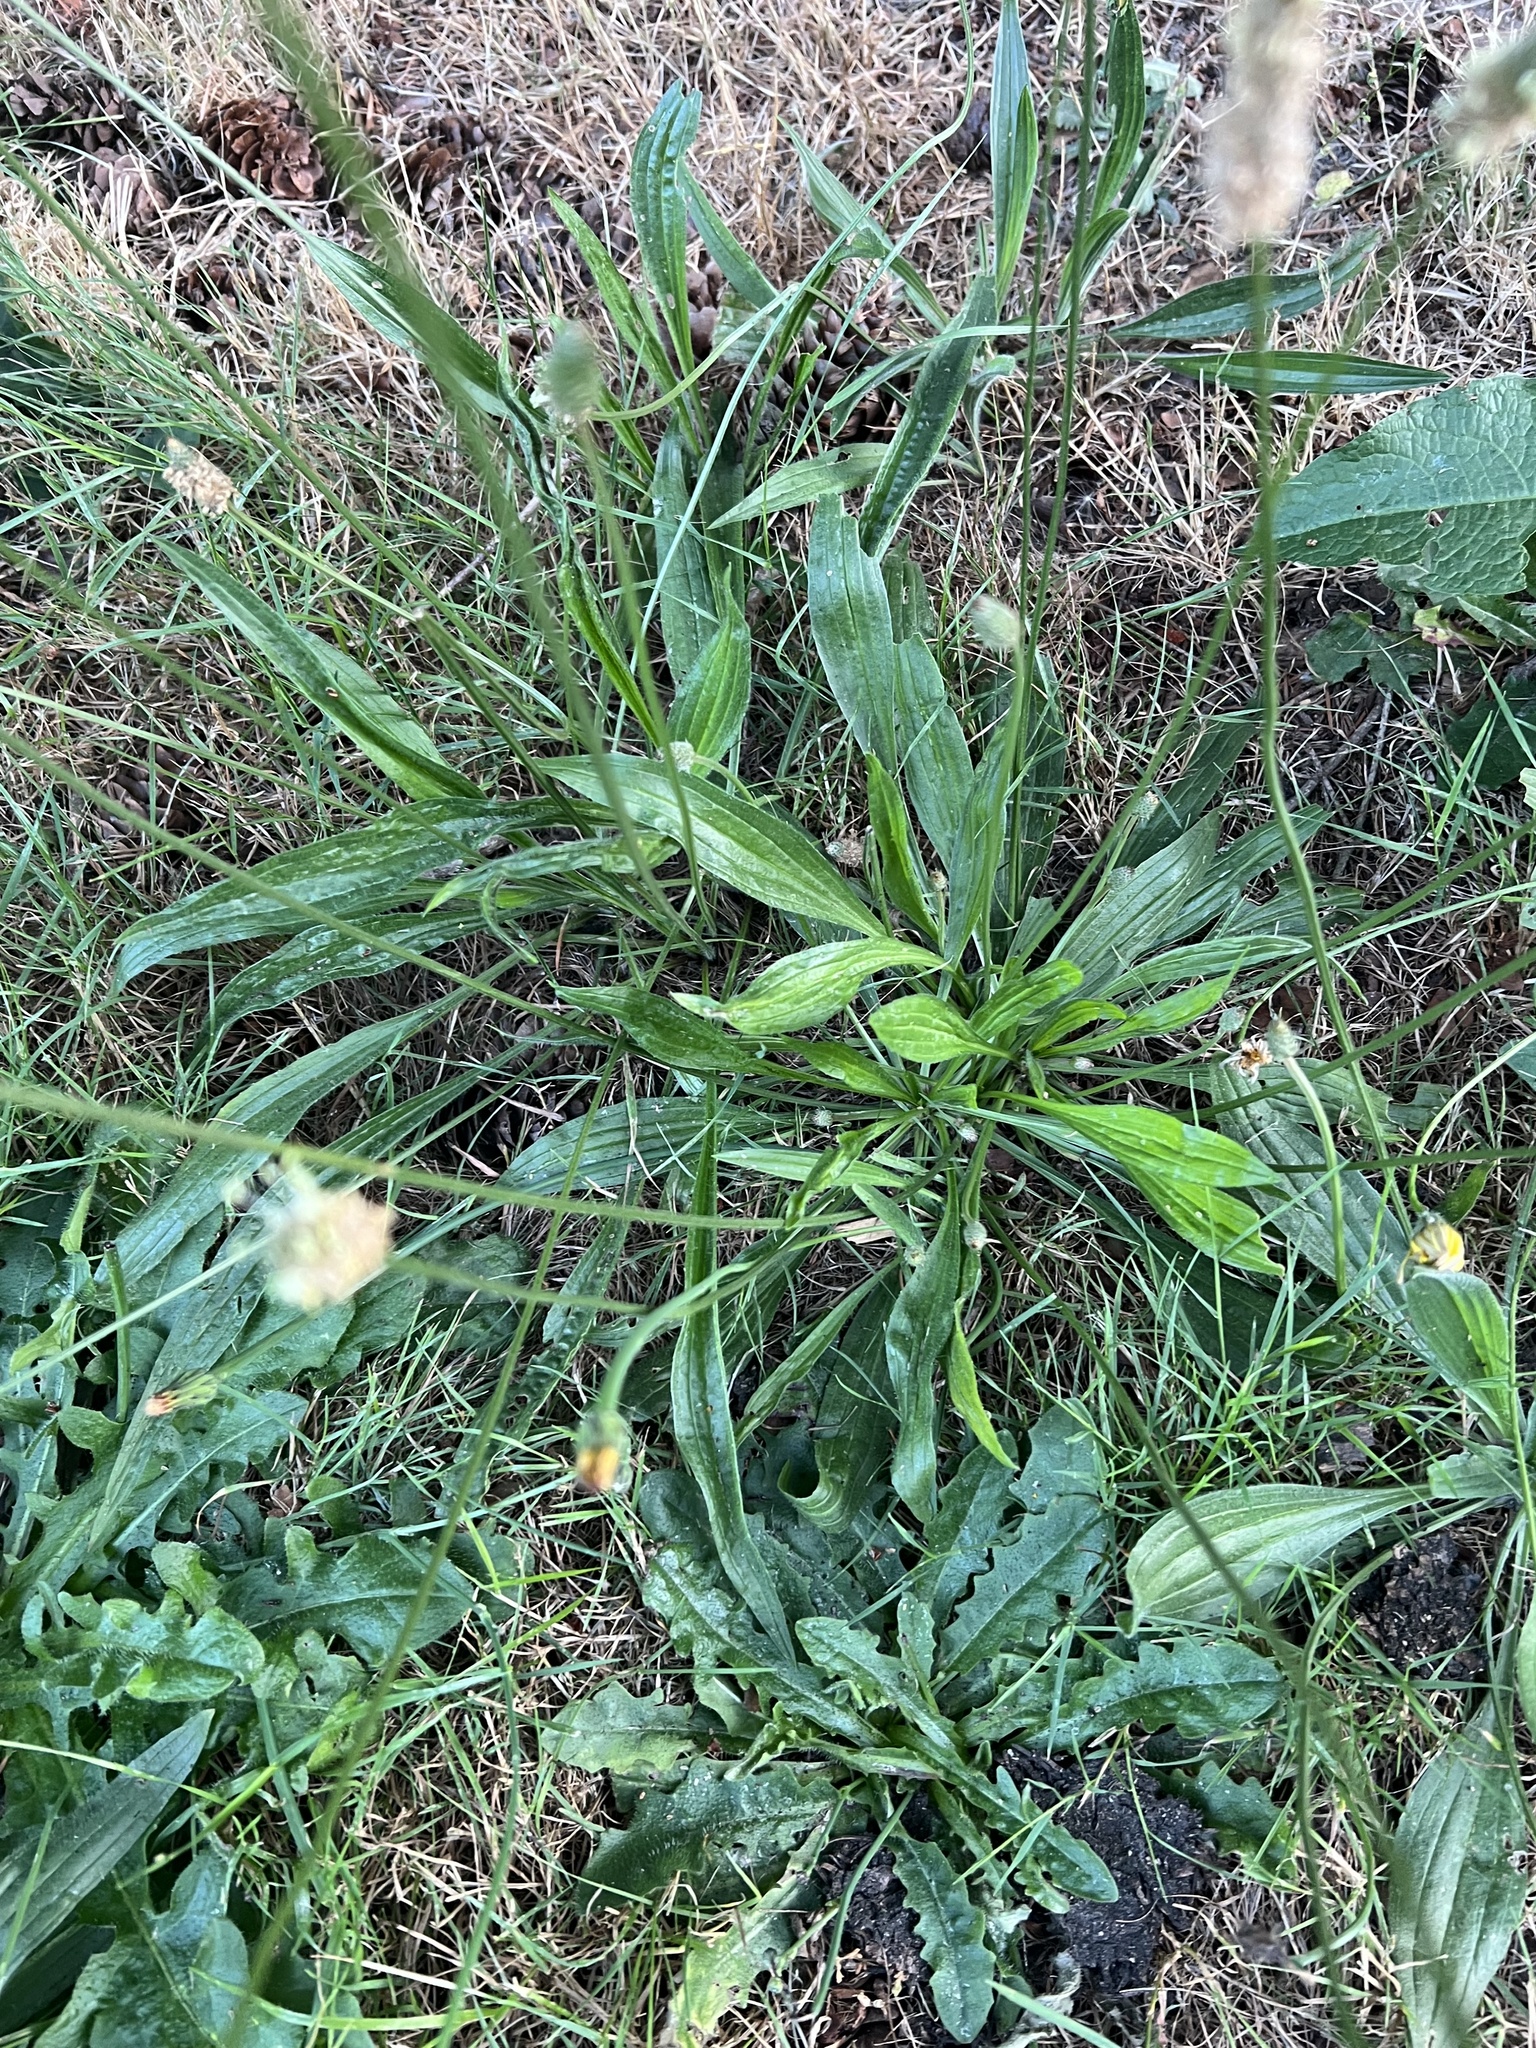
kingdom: Plantae
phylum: Tracheophyta
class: Magnoliopsida
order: Lamiales
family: Plantaginaceae
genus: Plantago
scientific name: Plantago lanceolata
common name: Ribwort plantain
